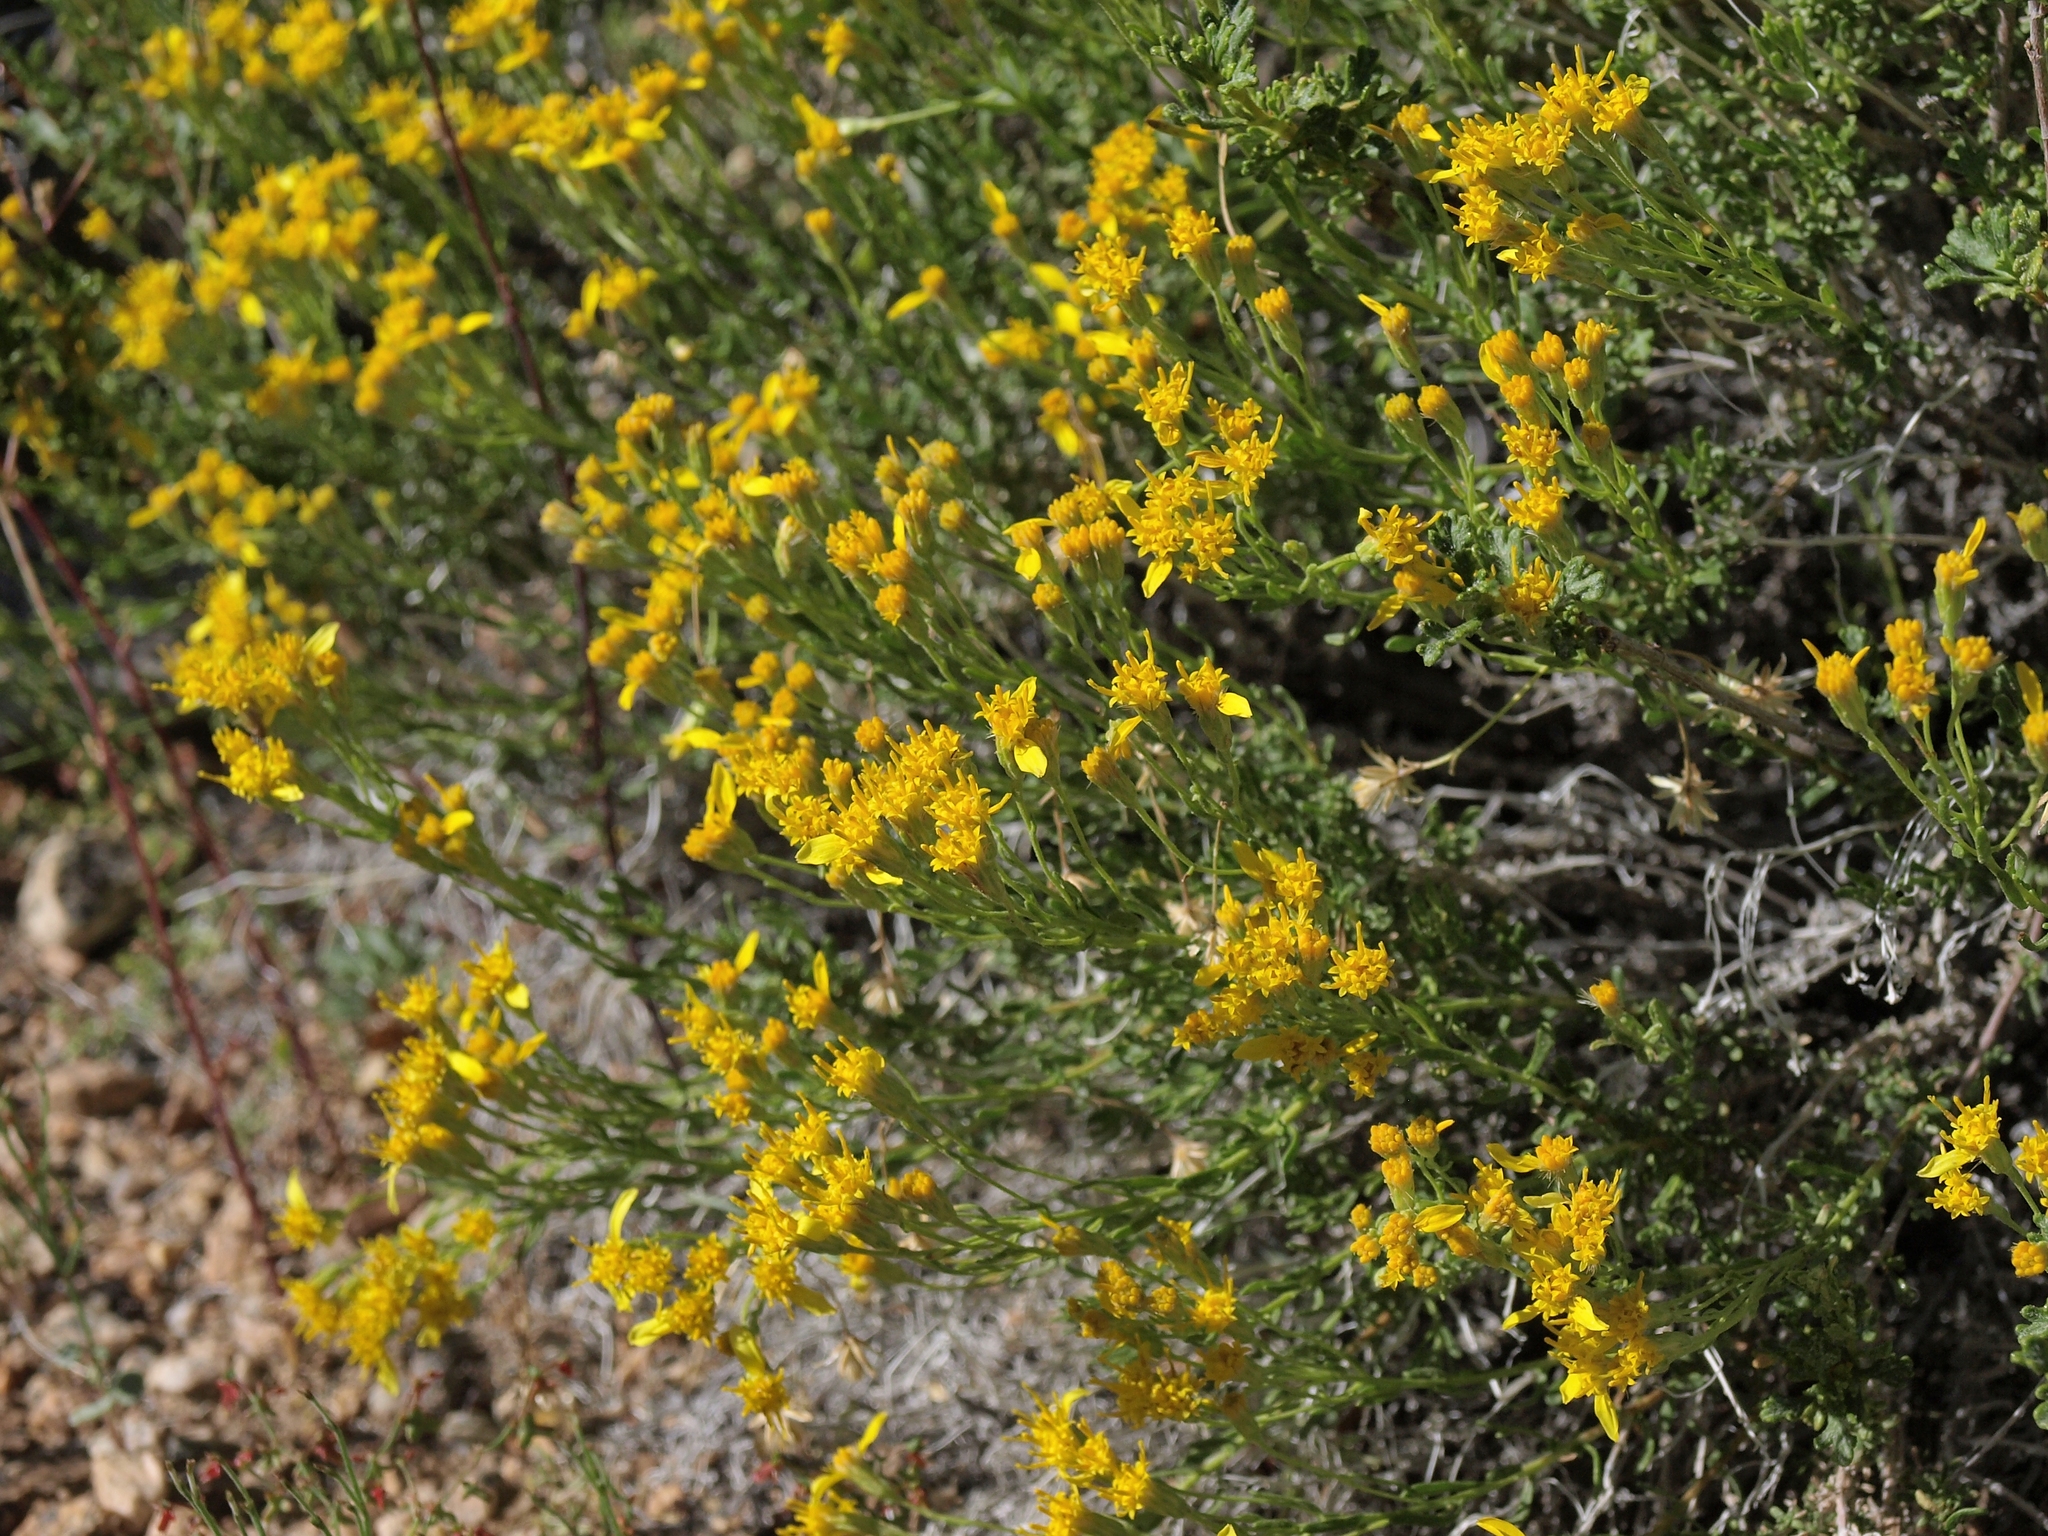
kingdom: Plantae
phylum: Tracheophyta
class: Magnoliopsida
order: Asterales
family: Asteraceae
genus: Ericameria
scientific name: Ericameria cooperi
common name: Cooper's goldenbush
